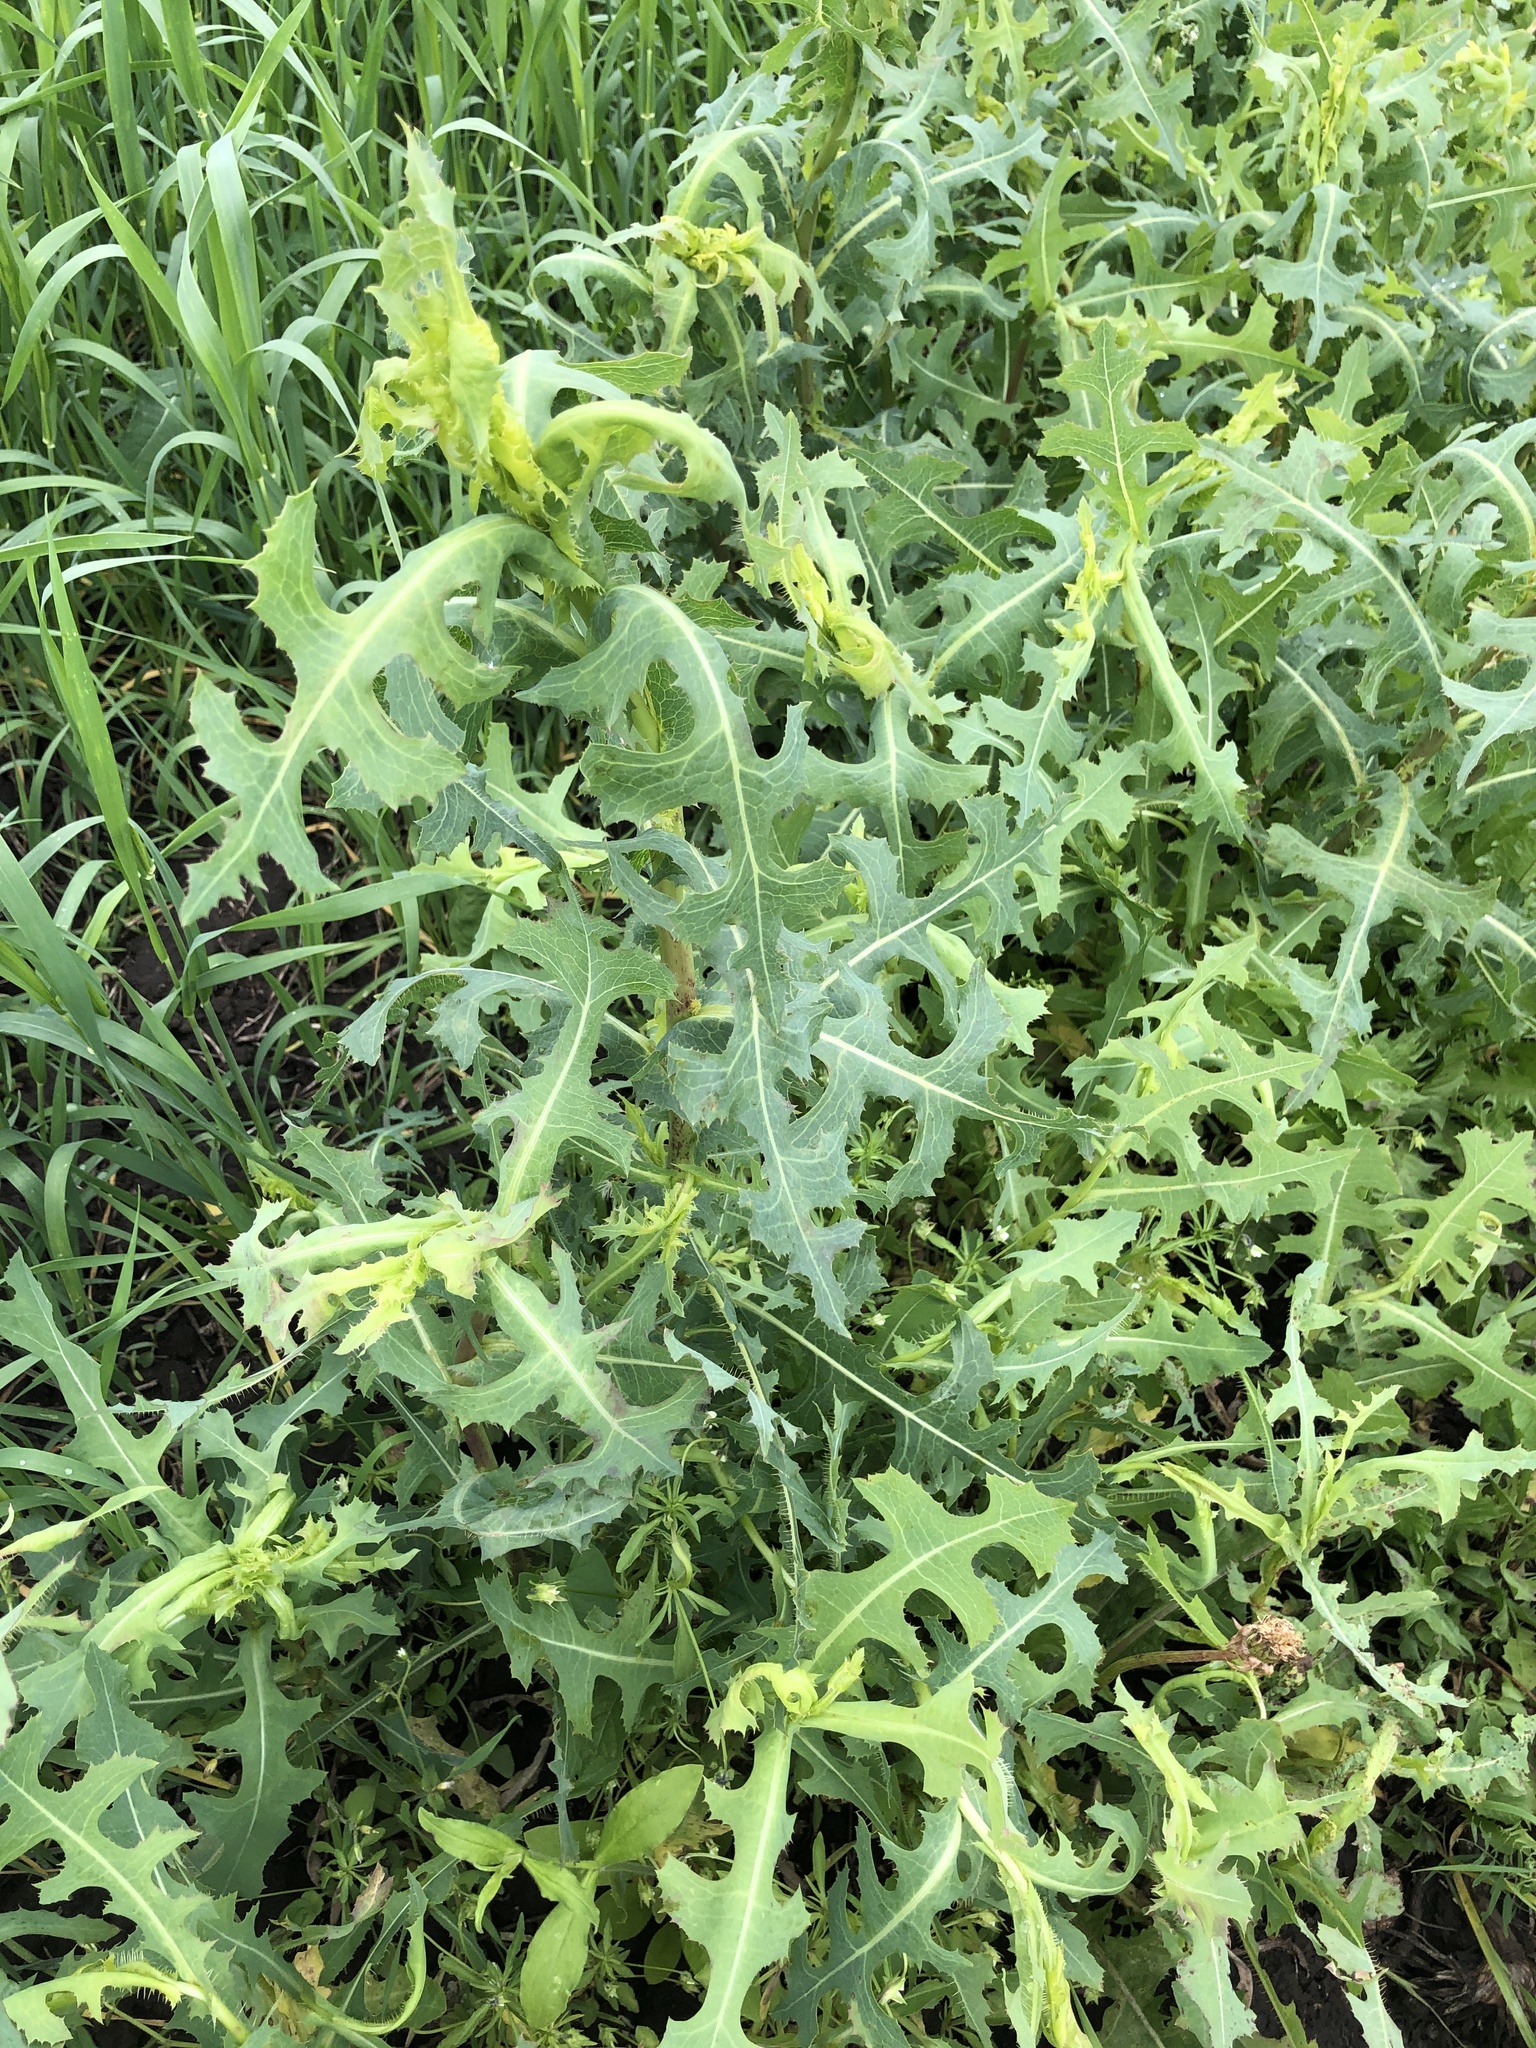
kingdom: Plantae
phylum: Tracheophyta
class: Magnoliopsida
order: Asterales
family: Asteraceae
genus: Lactuca
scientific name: Lactuca serriola
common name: Prickly lettuce
